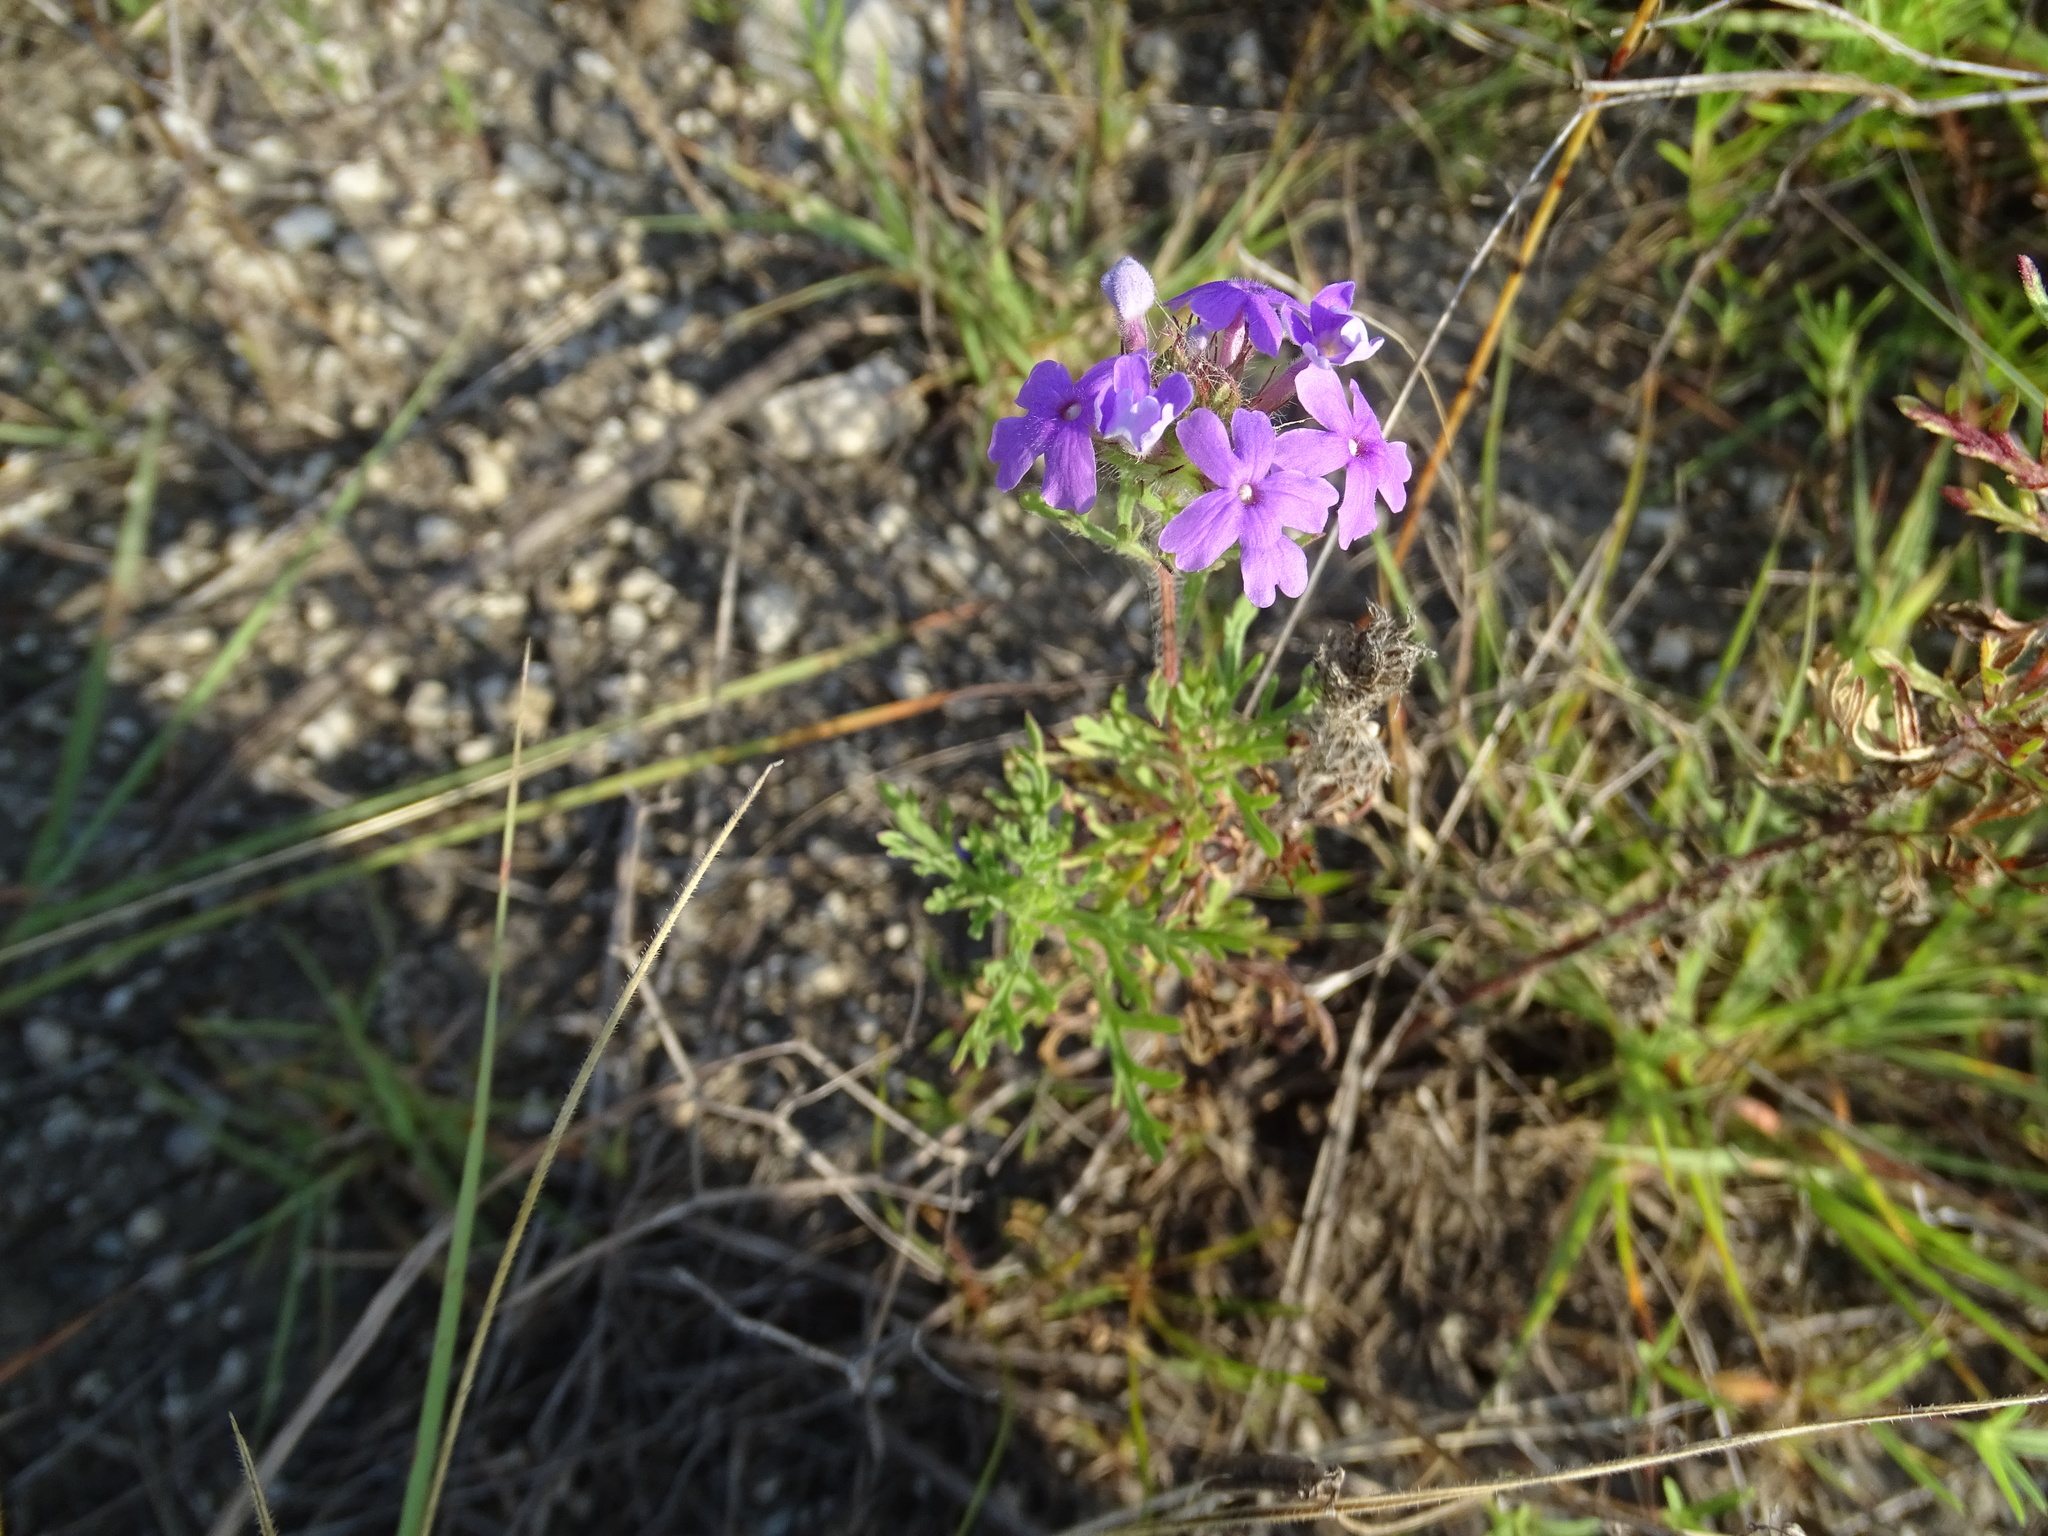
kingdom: Plantae
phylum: Tracheophyta
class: Magnoliopsida
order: Lamiales
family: Verbenaceae
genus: Verbena
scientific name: Verbena bipinnatifida
